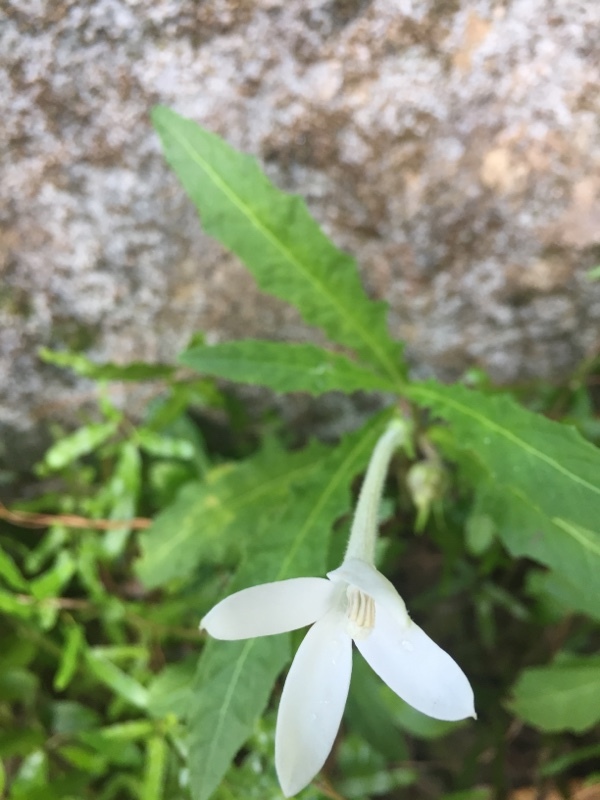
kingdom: Plantae
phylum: Tracheophyta
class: Magnoliopsida
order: Asterales
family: Campanulaceae
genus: Hippobroma
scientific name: Hippobroma longiflora
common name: Madamfate
